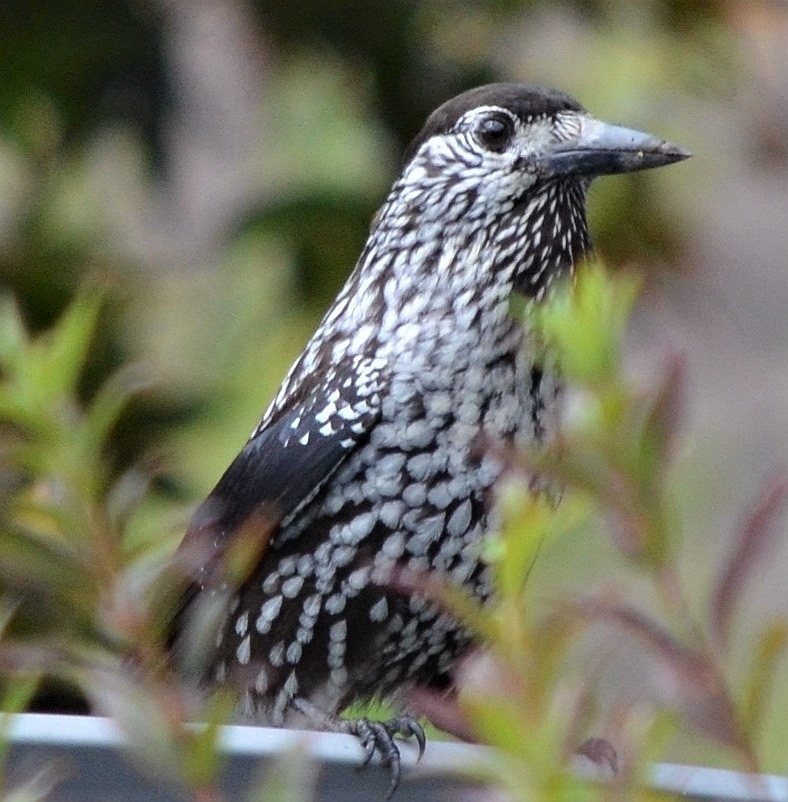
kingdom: Animalia
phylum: Chordata
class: Aves
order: Passeriformes
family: Corvidae
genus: Nucifraga
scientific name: Nucifraga caryocatactes
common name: Spotted nutcracker
